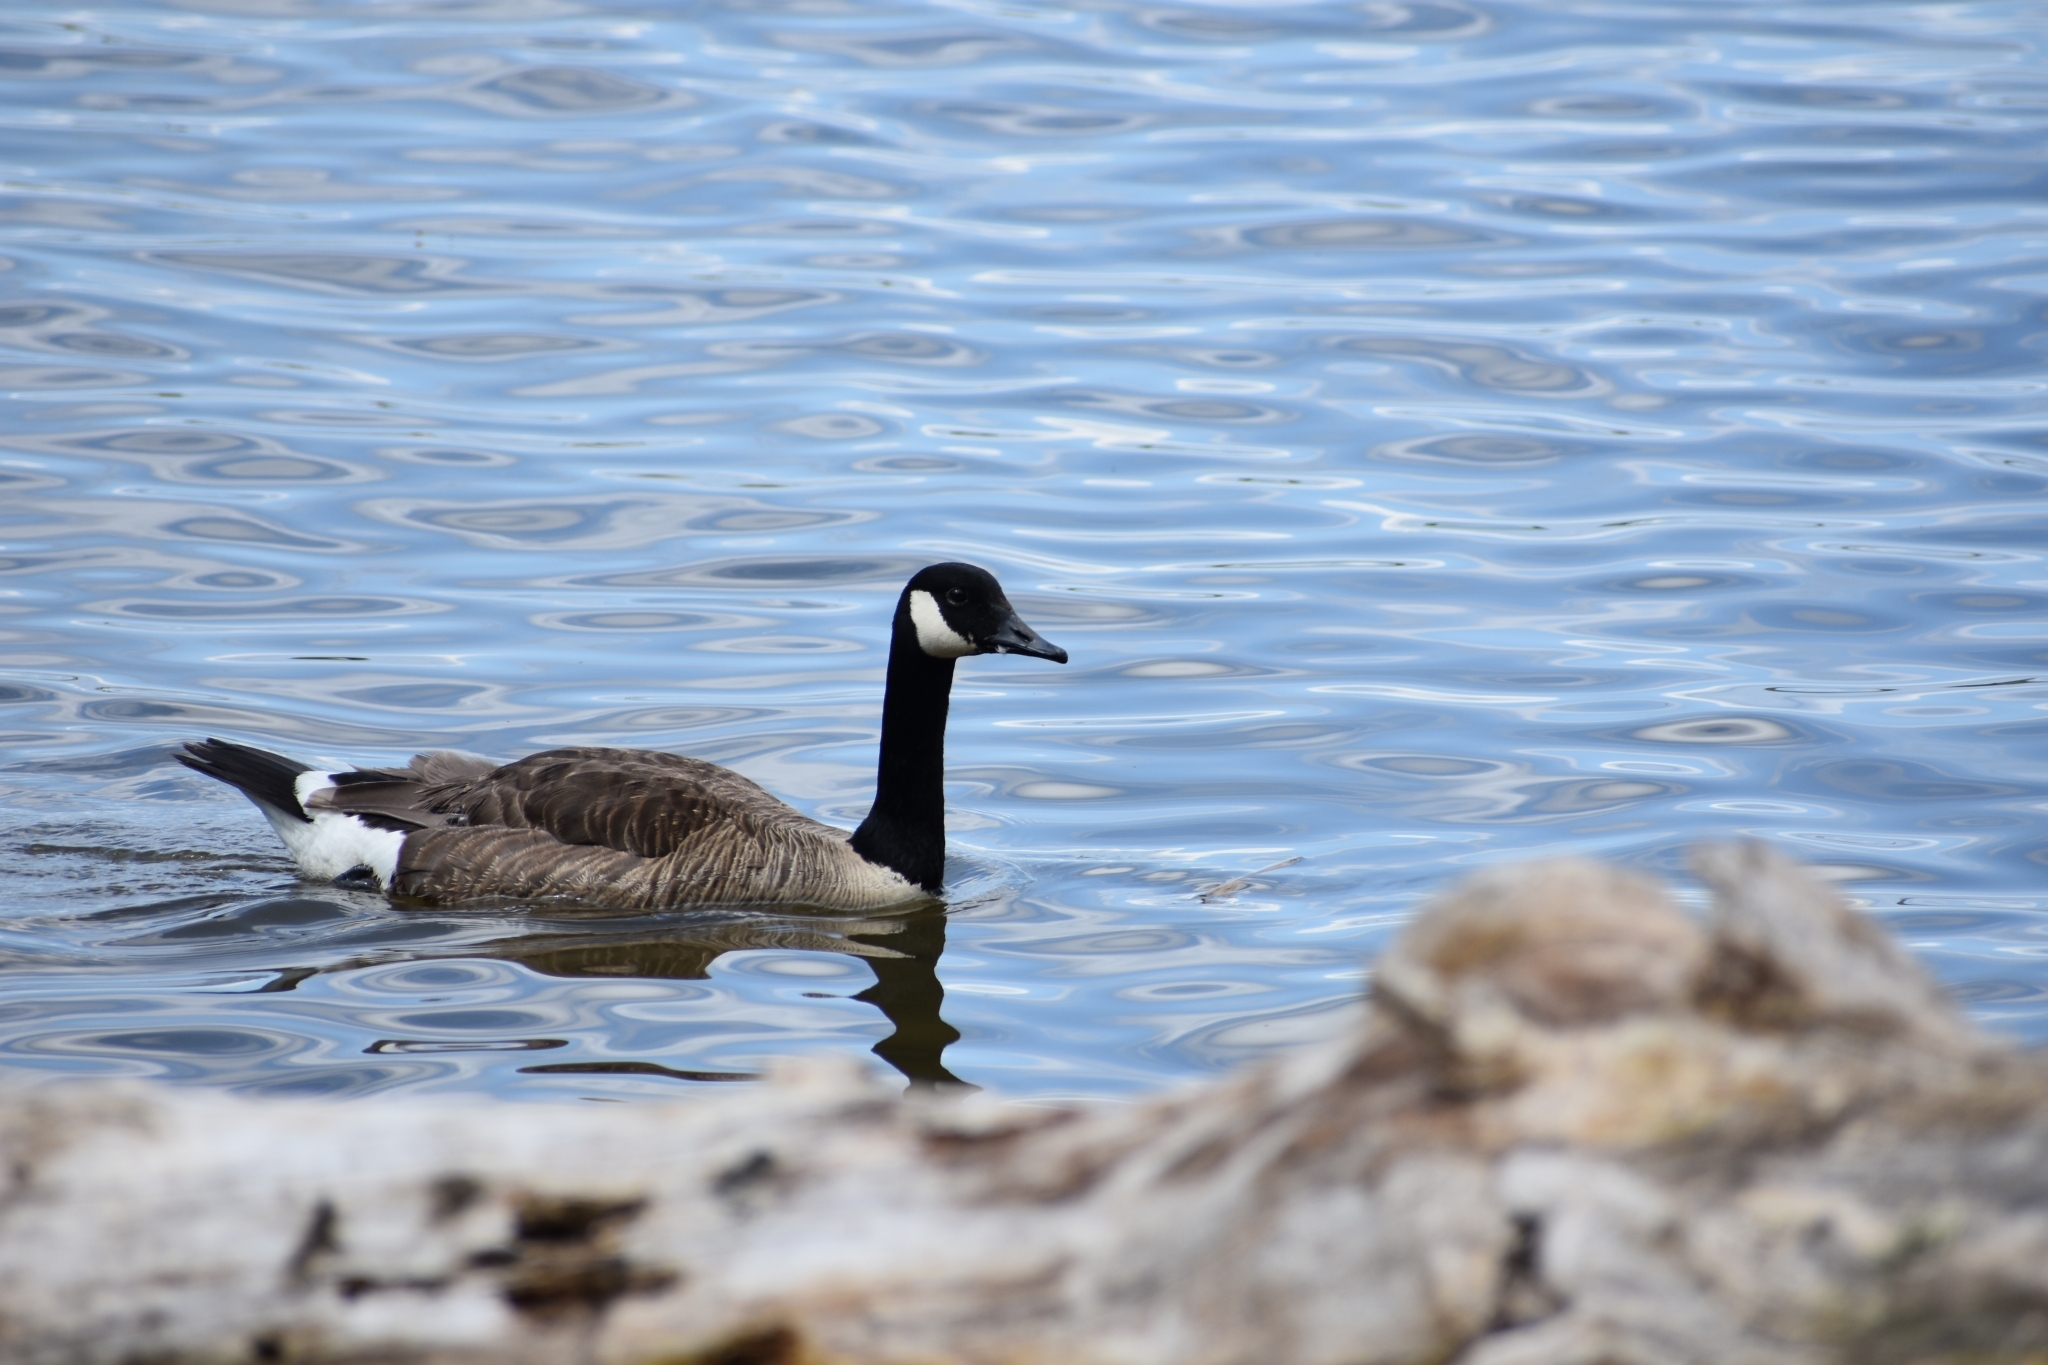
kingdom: Animalia
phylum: Chordata
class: Aves
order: Anseriformes
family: Anatidae
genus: Branta
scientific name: Branta canadensis
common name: Canada goose
